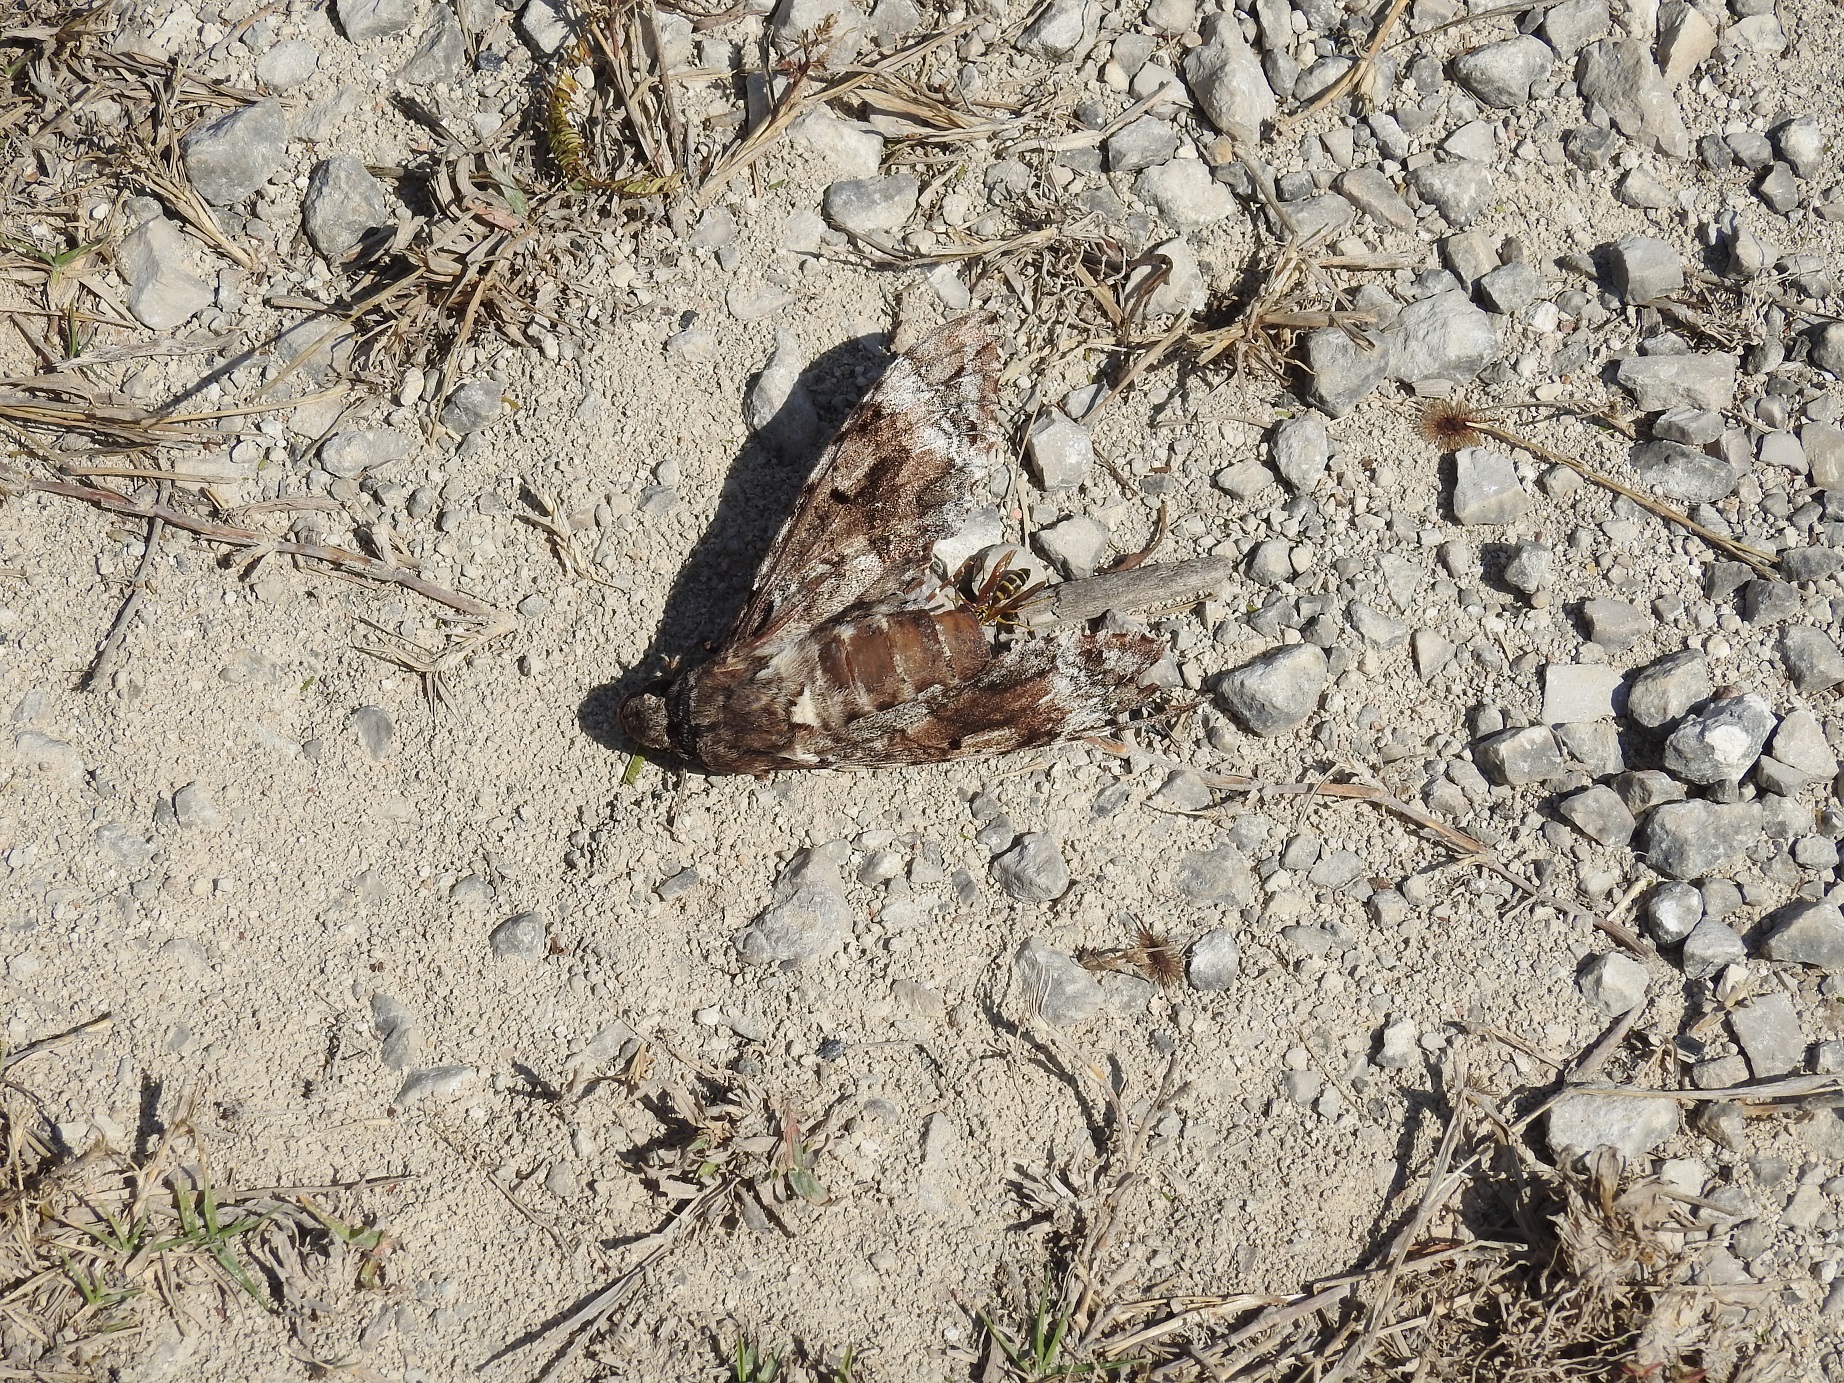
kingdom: Animalia
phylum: Arthropoda
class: Insecta
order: Lepidoptera
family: Sphingidae
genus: Pseudosphinx
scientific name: Pseudosphinx tetrio
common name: Tetrio sphinx
